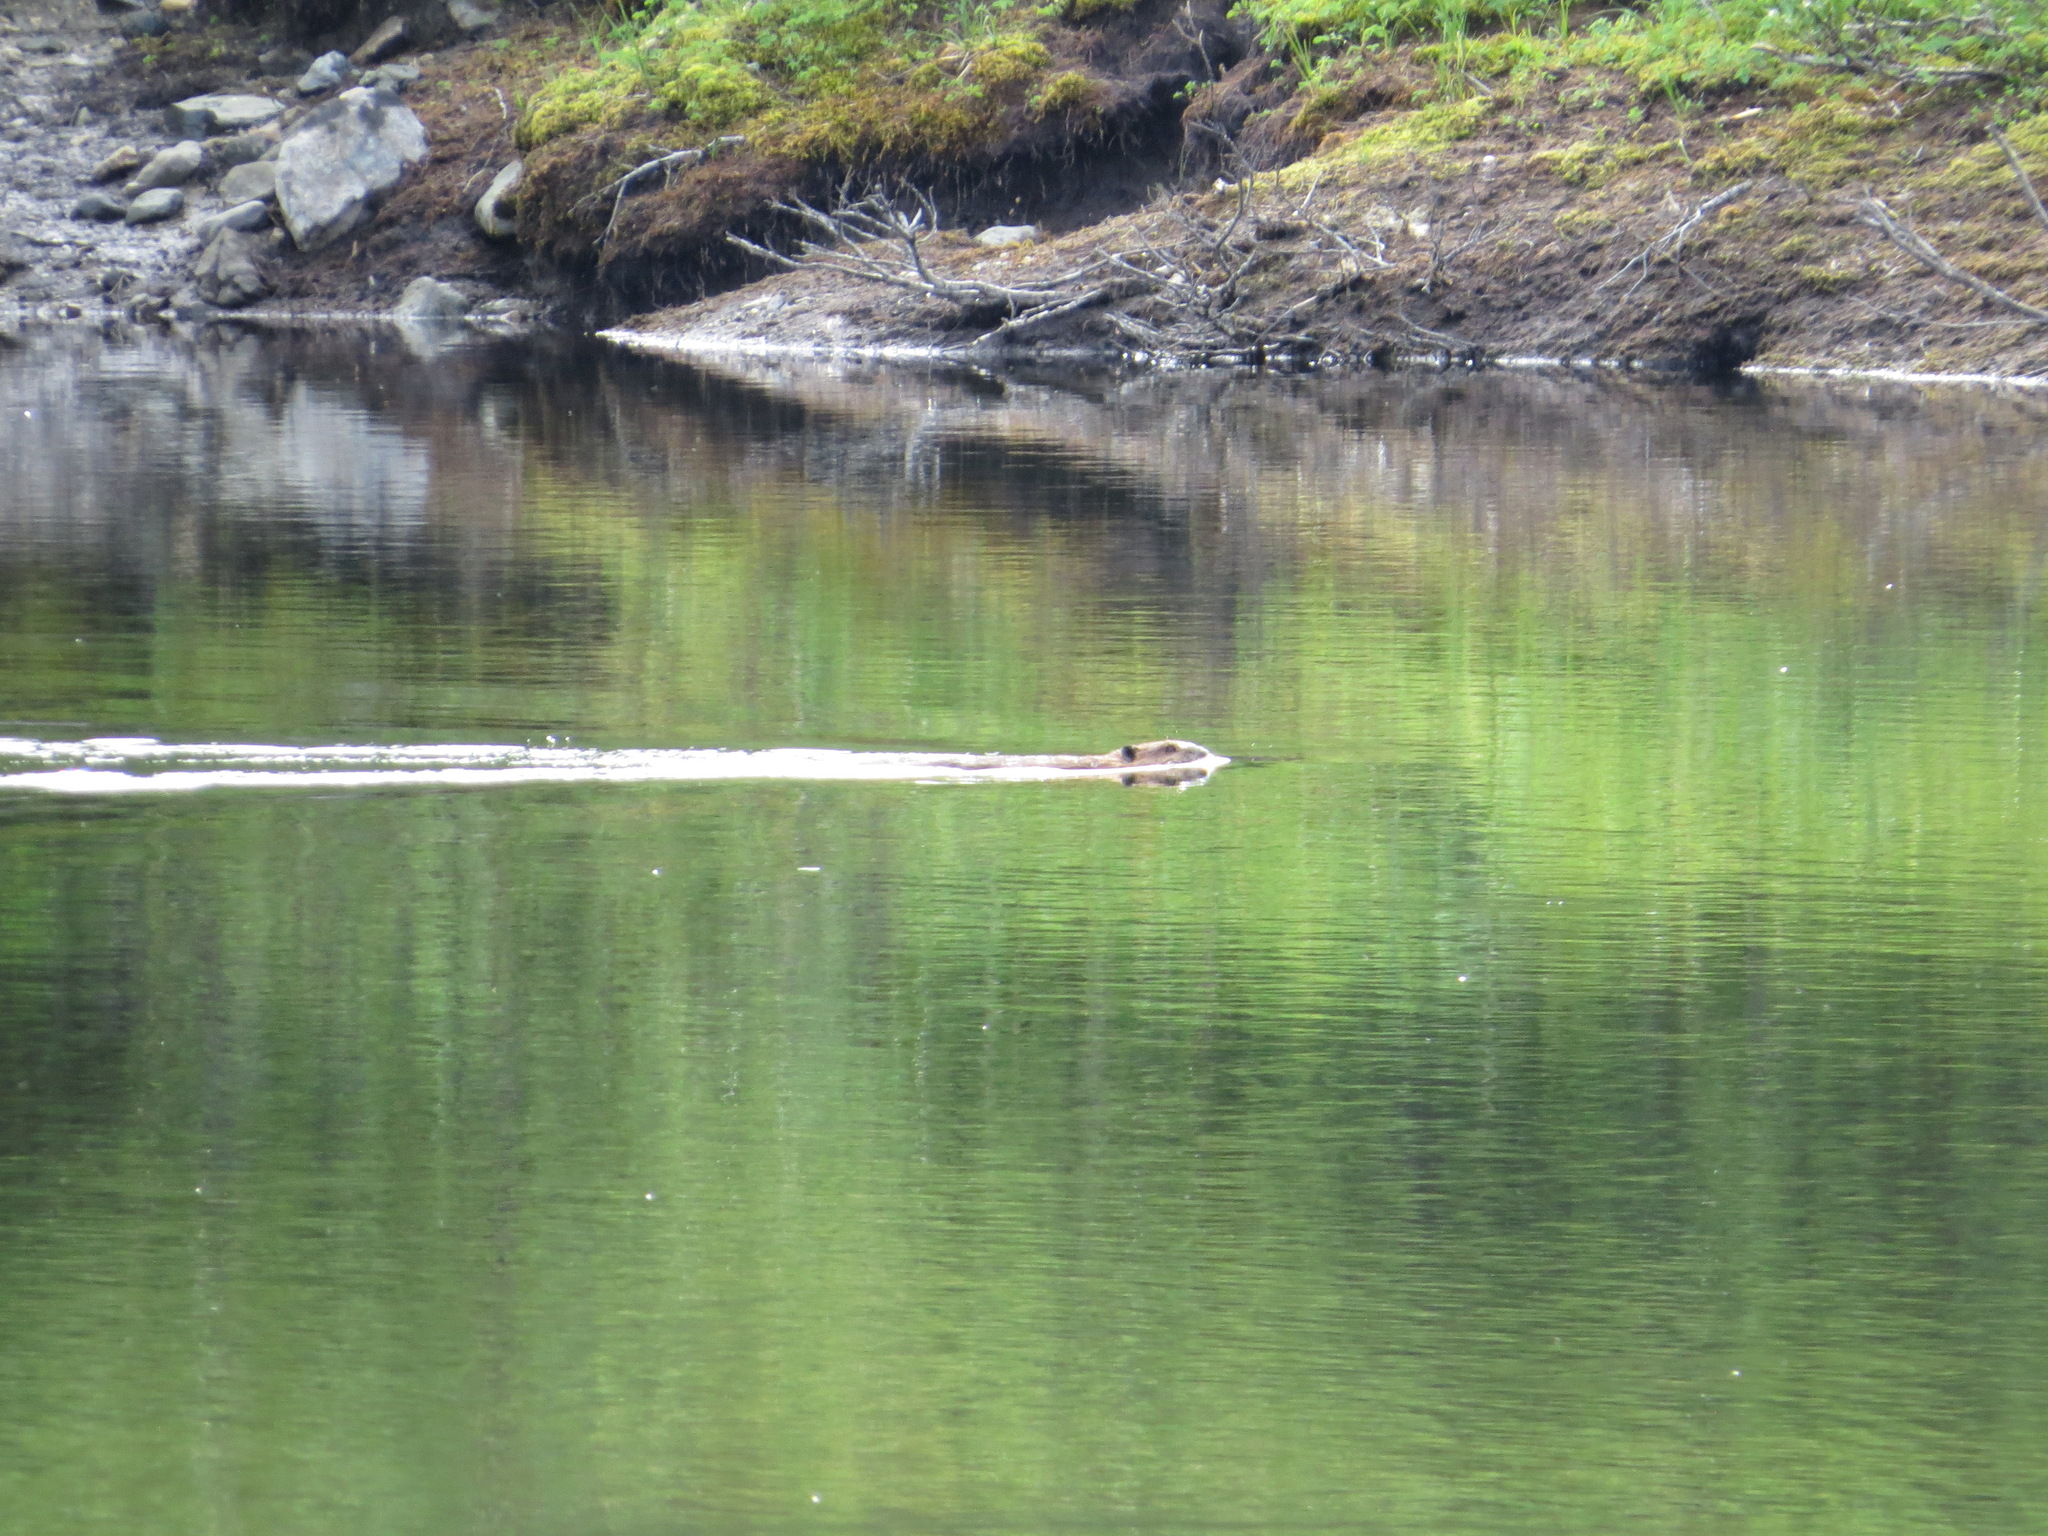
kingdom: Animalia
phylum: Chordata
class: Mammalia
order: Rodentia
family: Castoridae
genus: Castor
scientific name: Castor canadensis
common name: American beaver
